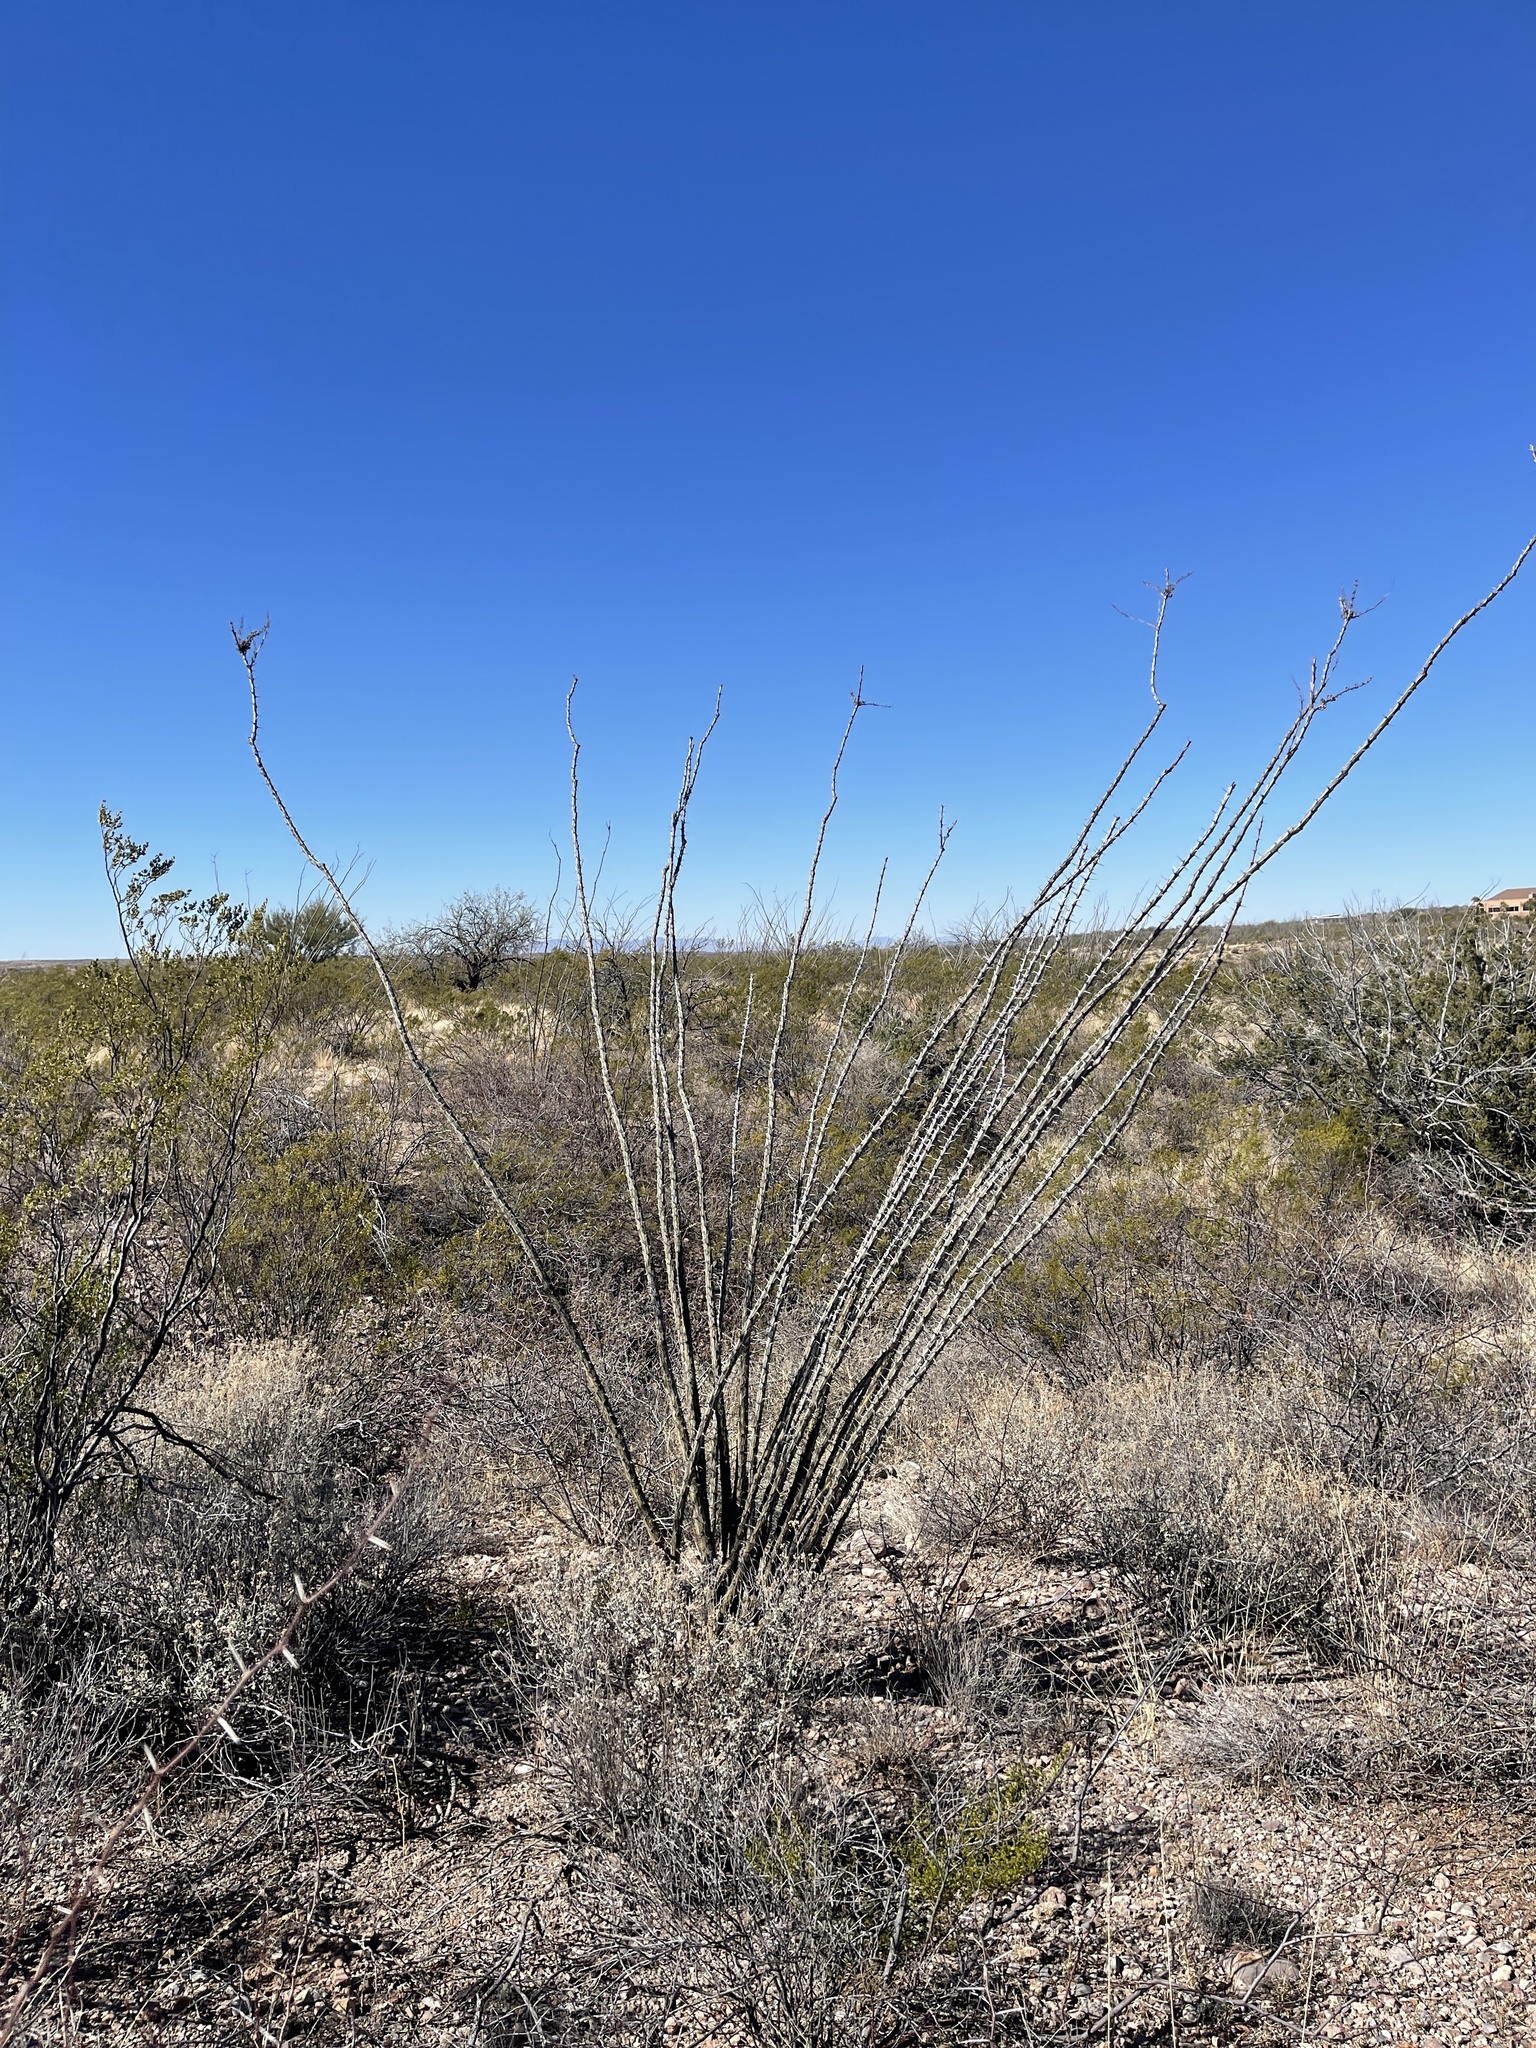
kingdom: Plantae
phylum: Tracheophyta
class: Magnoliopsida
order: Ericales
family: Fouquieriaceae
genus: Fouquieria
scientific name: Fouquieria splendens
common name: Vine-cactus
